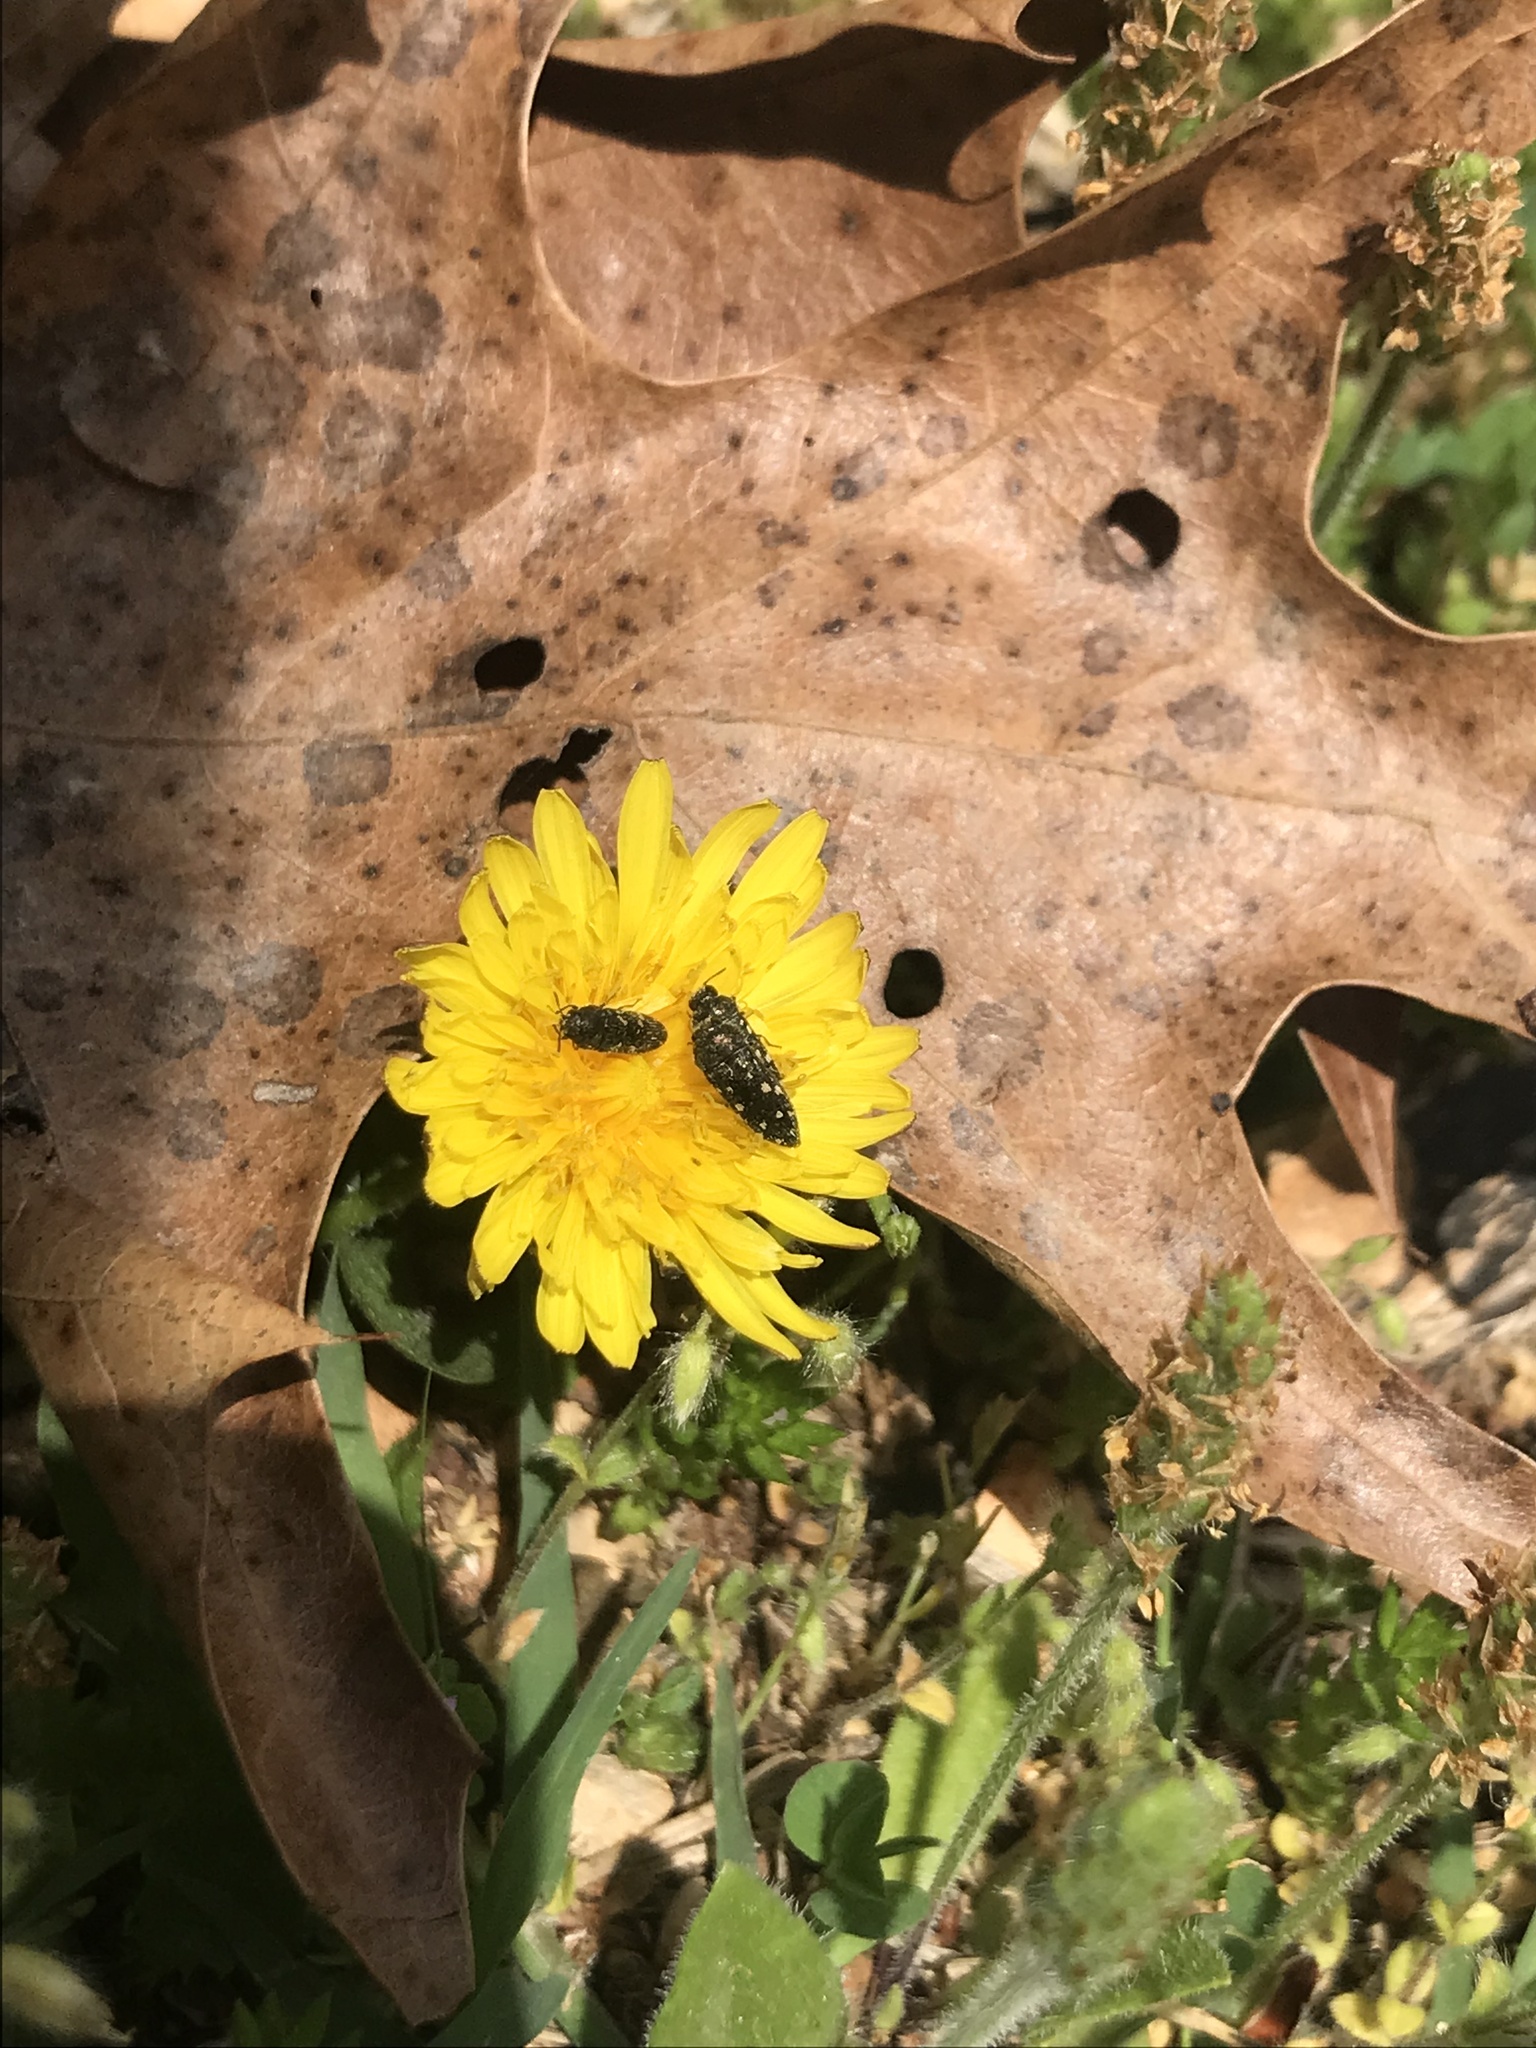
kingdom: Animalia
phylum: Arthropoda
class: Insecta
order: Coleoptera
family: Buprestidae
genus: Acmaeodera
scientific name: Acmaeodera tubulus
